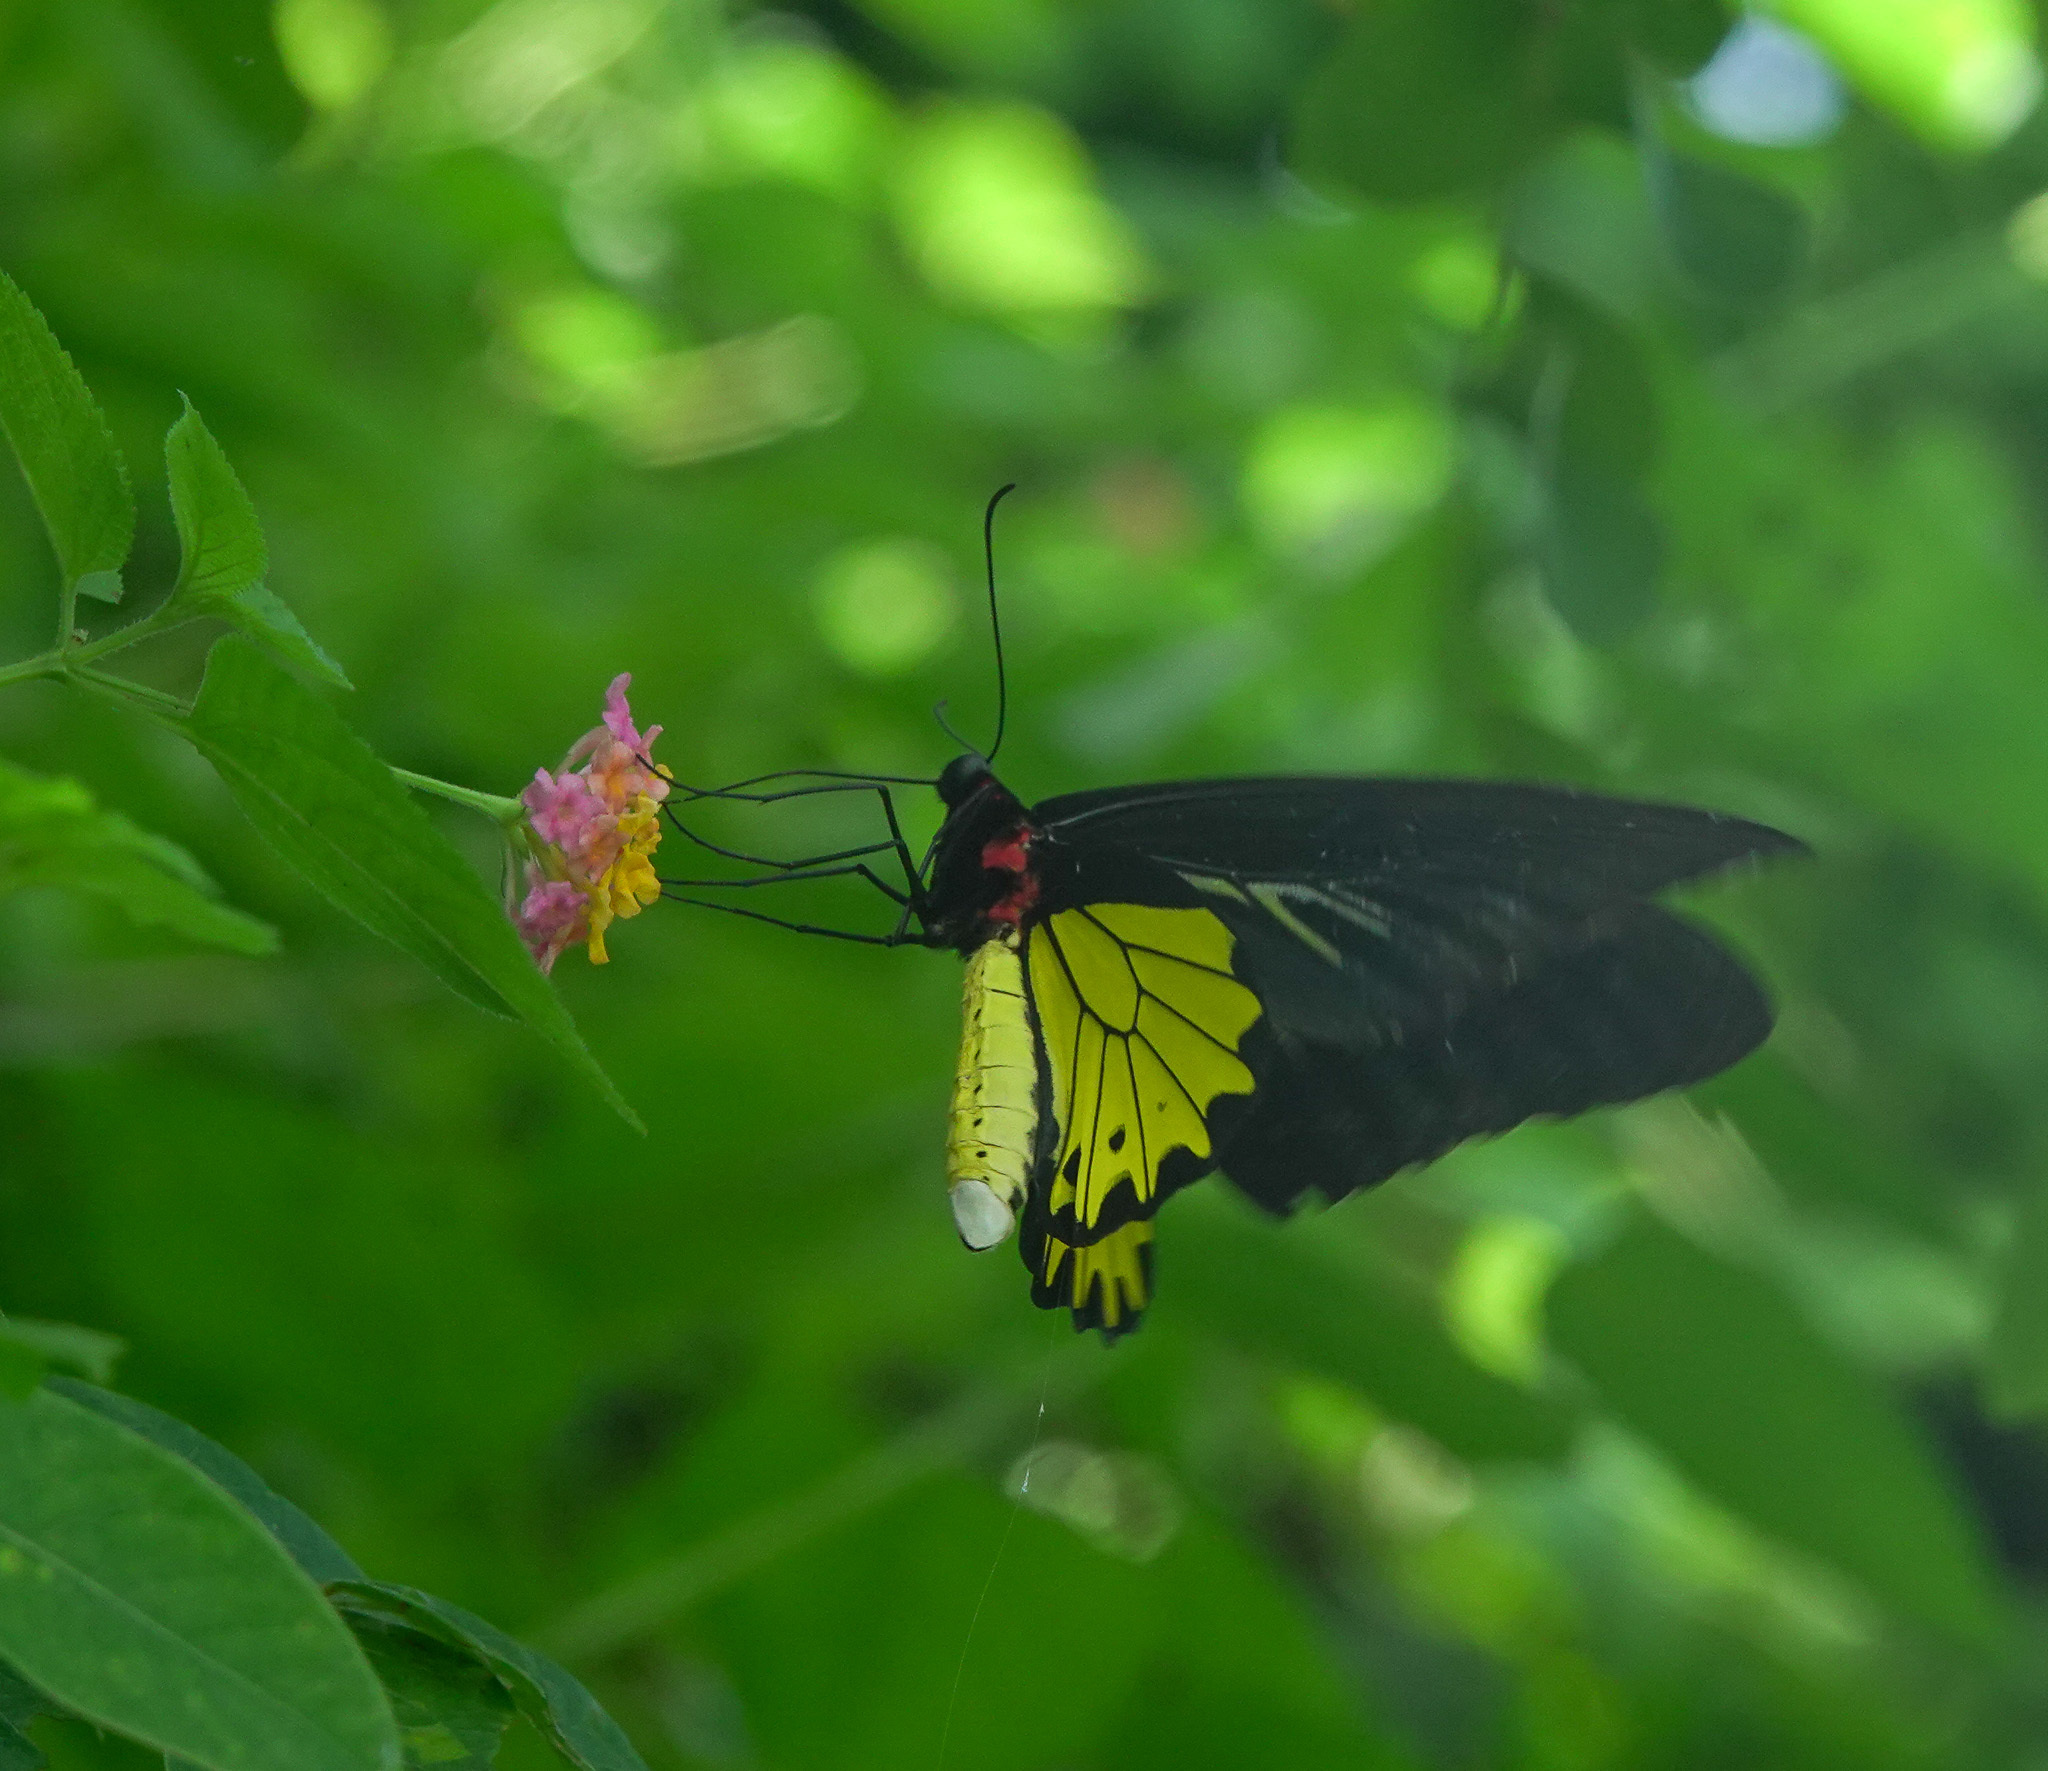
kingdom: Animalia
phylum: Arthropoda
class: Insecta
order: Lepidoptera
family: Papilionidae
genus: Troides
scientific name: Troides helena
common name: Common birdwing
